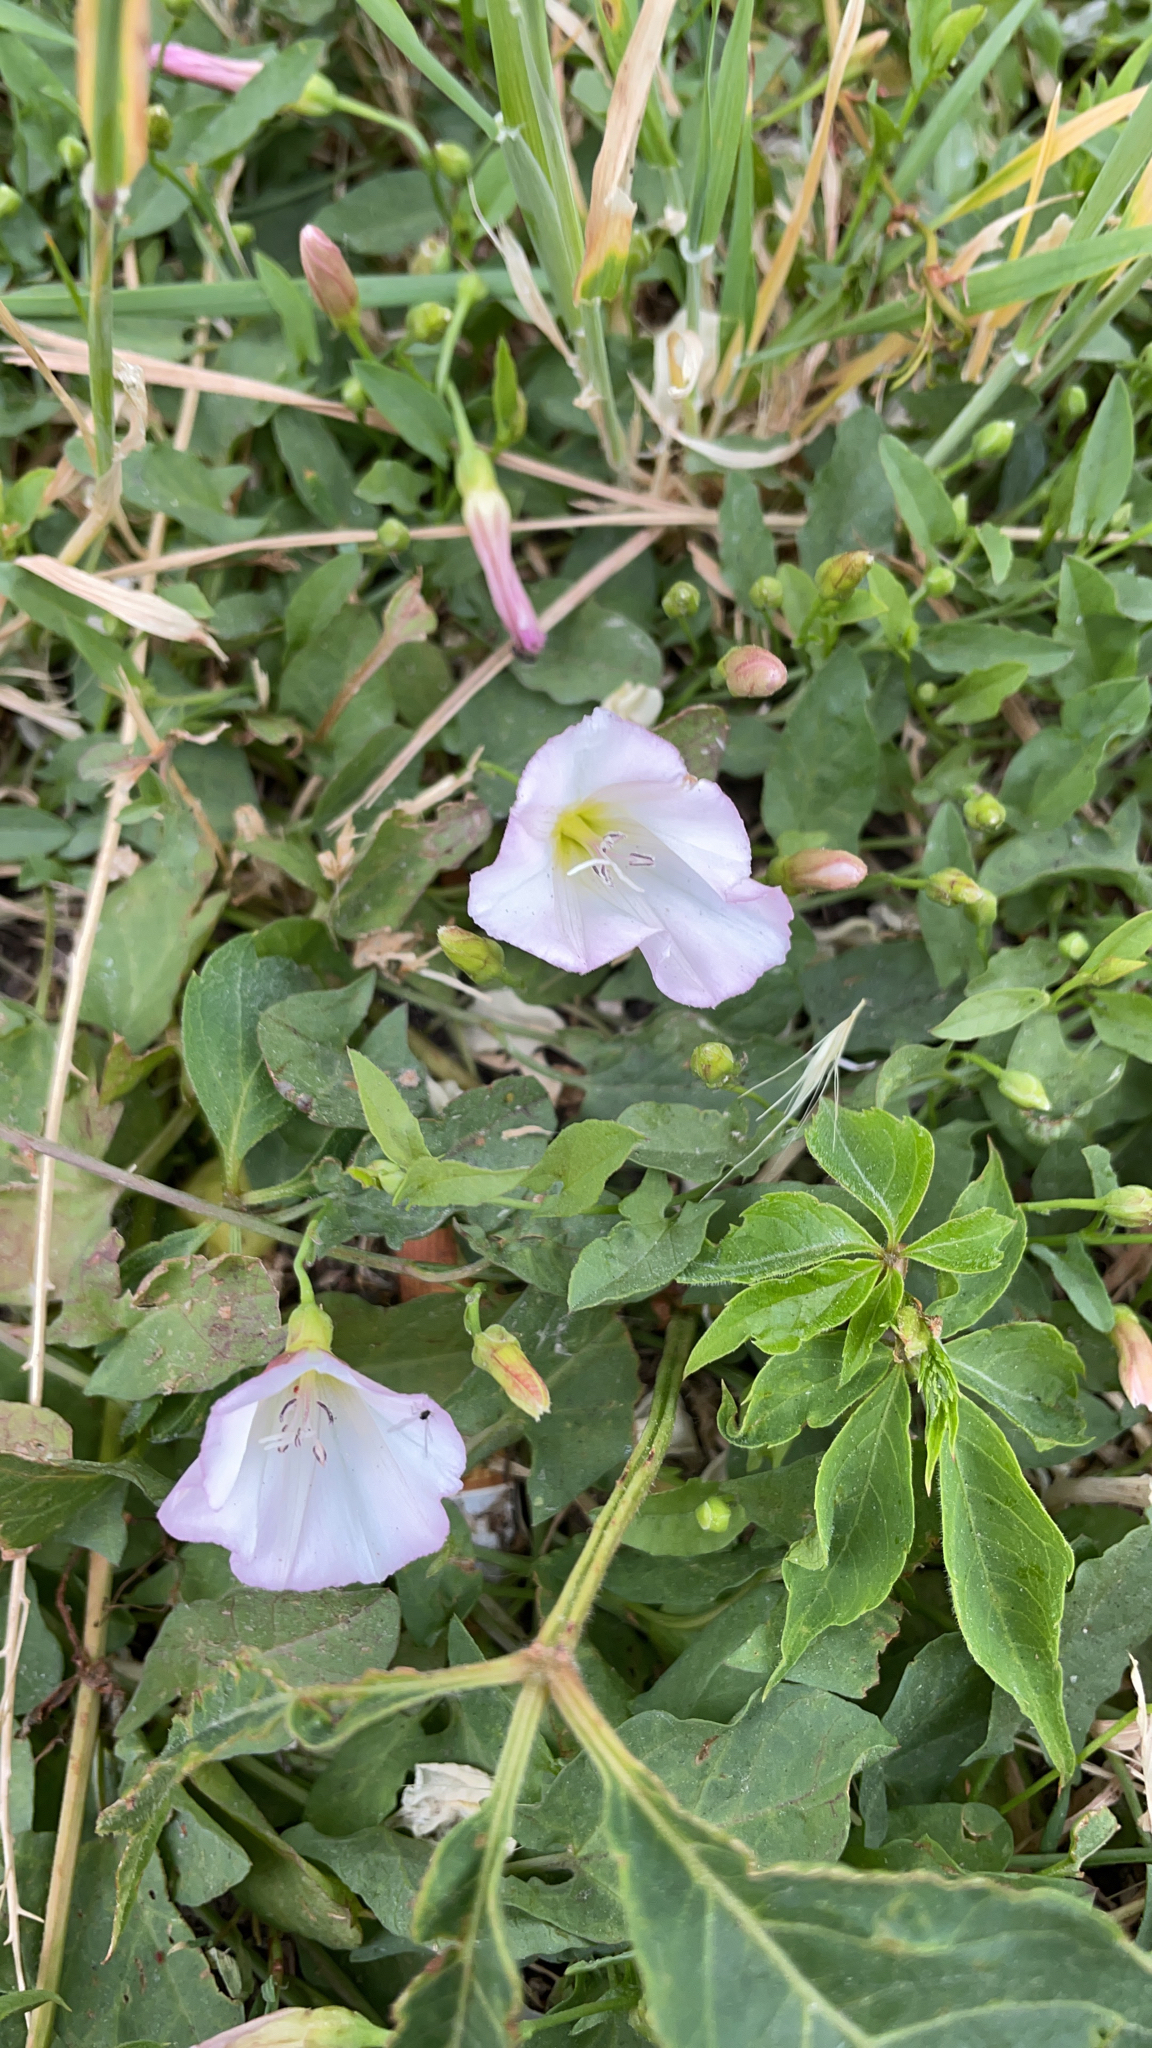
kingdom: Plantae
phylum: Tracheophyta
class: Magnoliopsida
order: Solanales
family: Convolvulaceae
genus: Convolvulus
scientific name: Convolvulus arvensis
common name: Field bindweed
